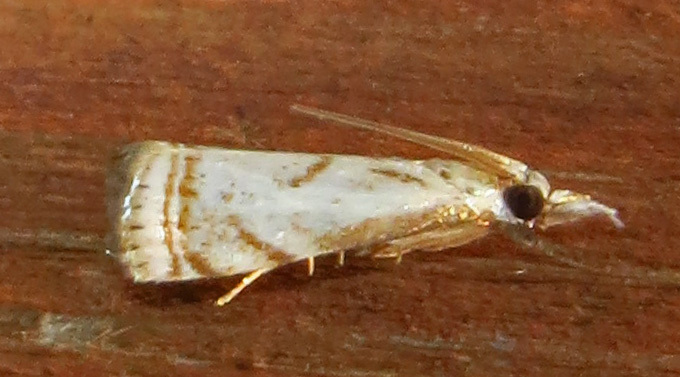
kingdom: Animalia
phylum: Arthropoda
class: Insecta
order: Lepidoptera
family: Crambidae
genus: Microcrambus
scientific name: Microcrambus elegans
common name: Elegant grass-veneer
